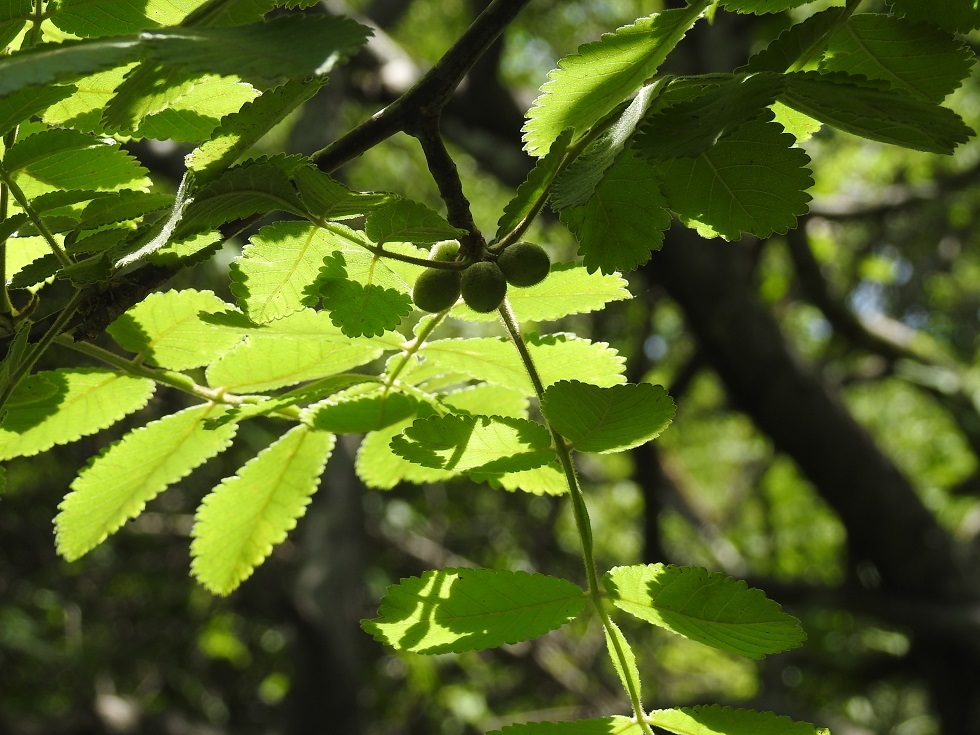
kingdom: Plantae
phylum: Tracheophyta
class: Magnoliopsida
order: Sapindales
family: Burseraceae
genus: Bursera
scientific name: Bursera excelsa
